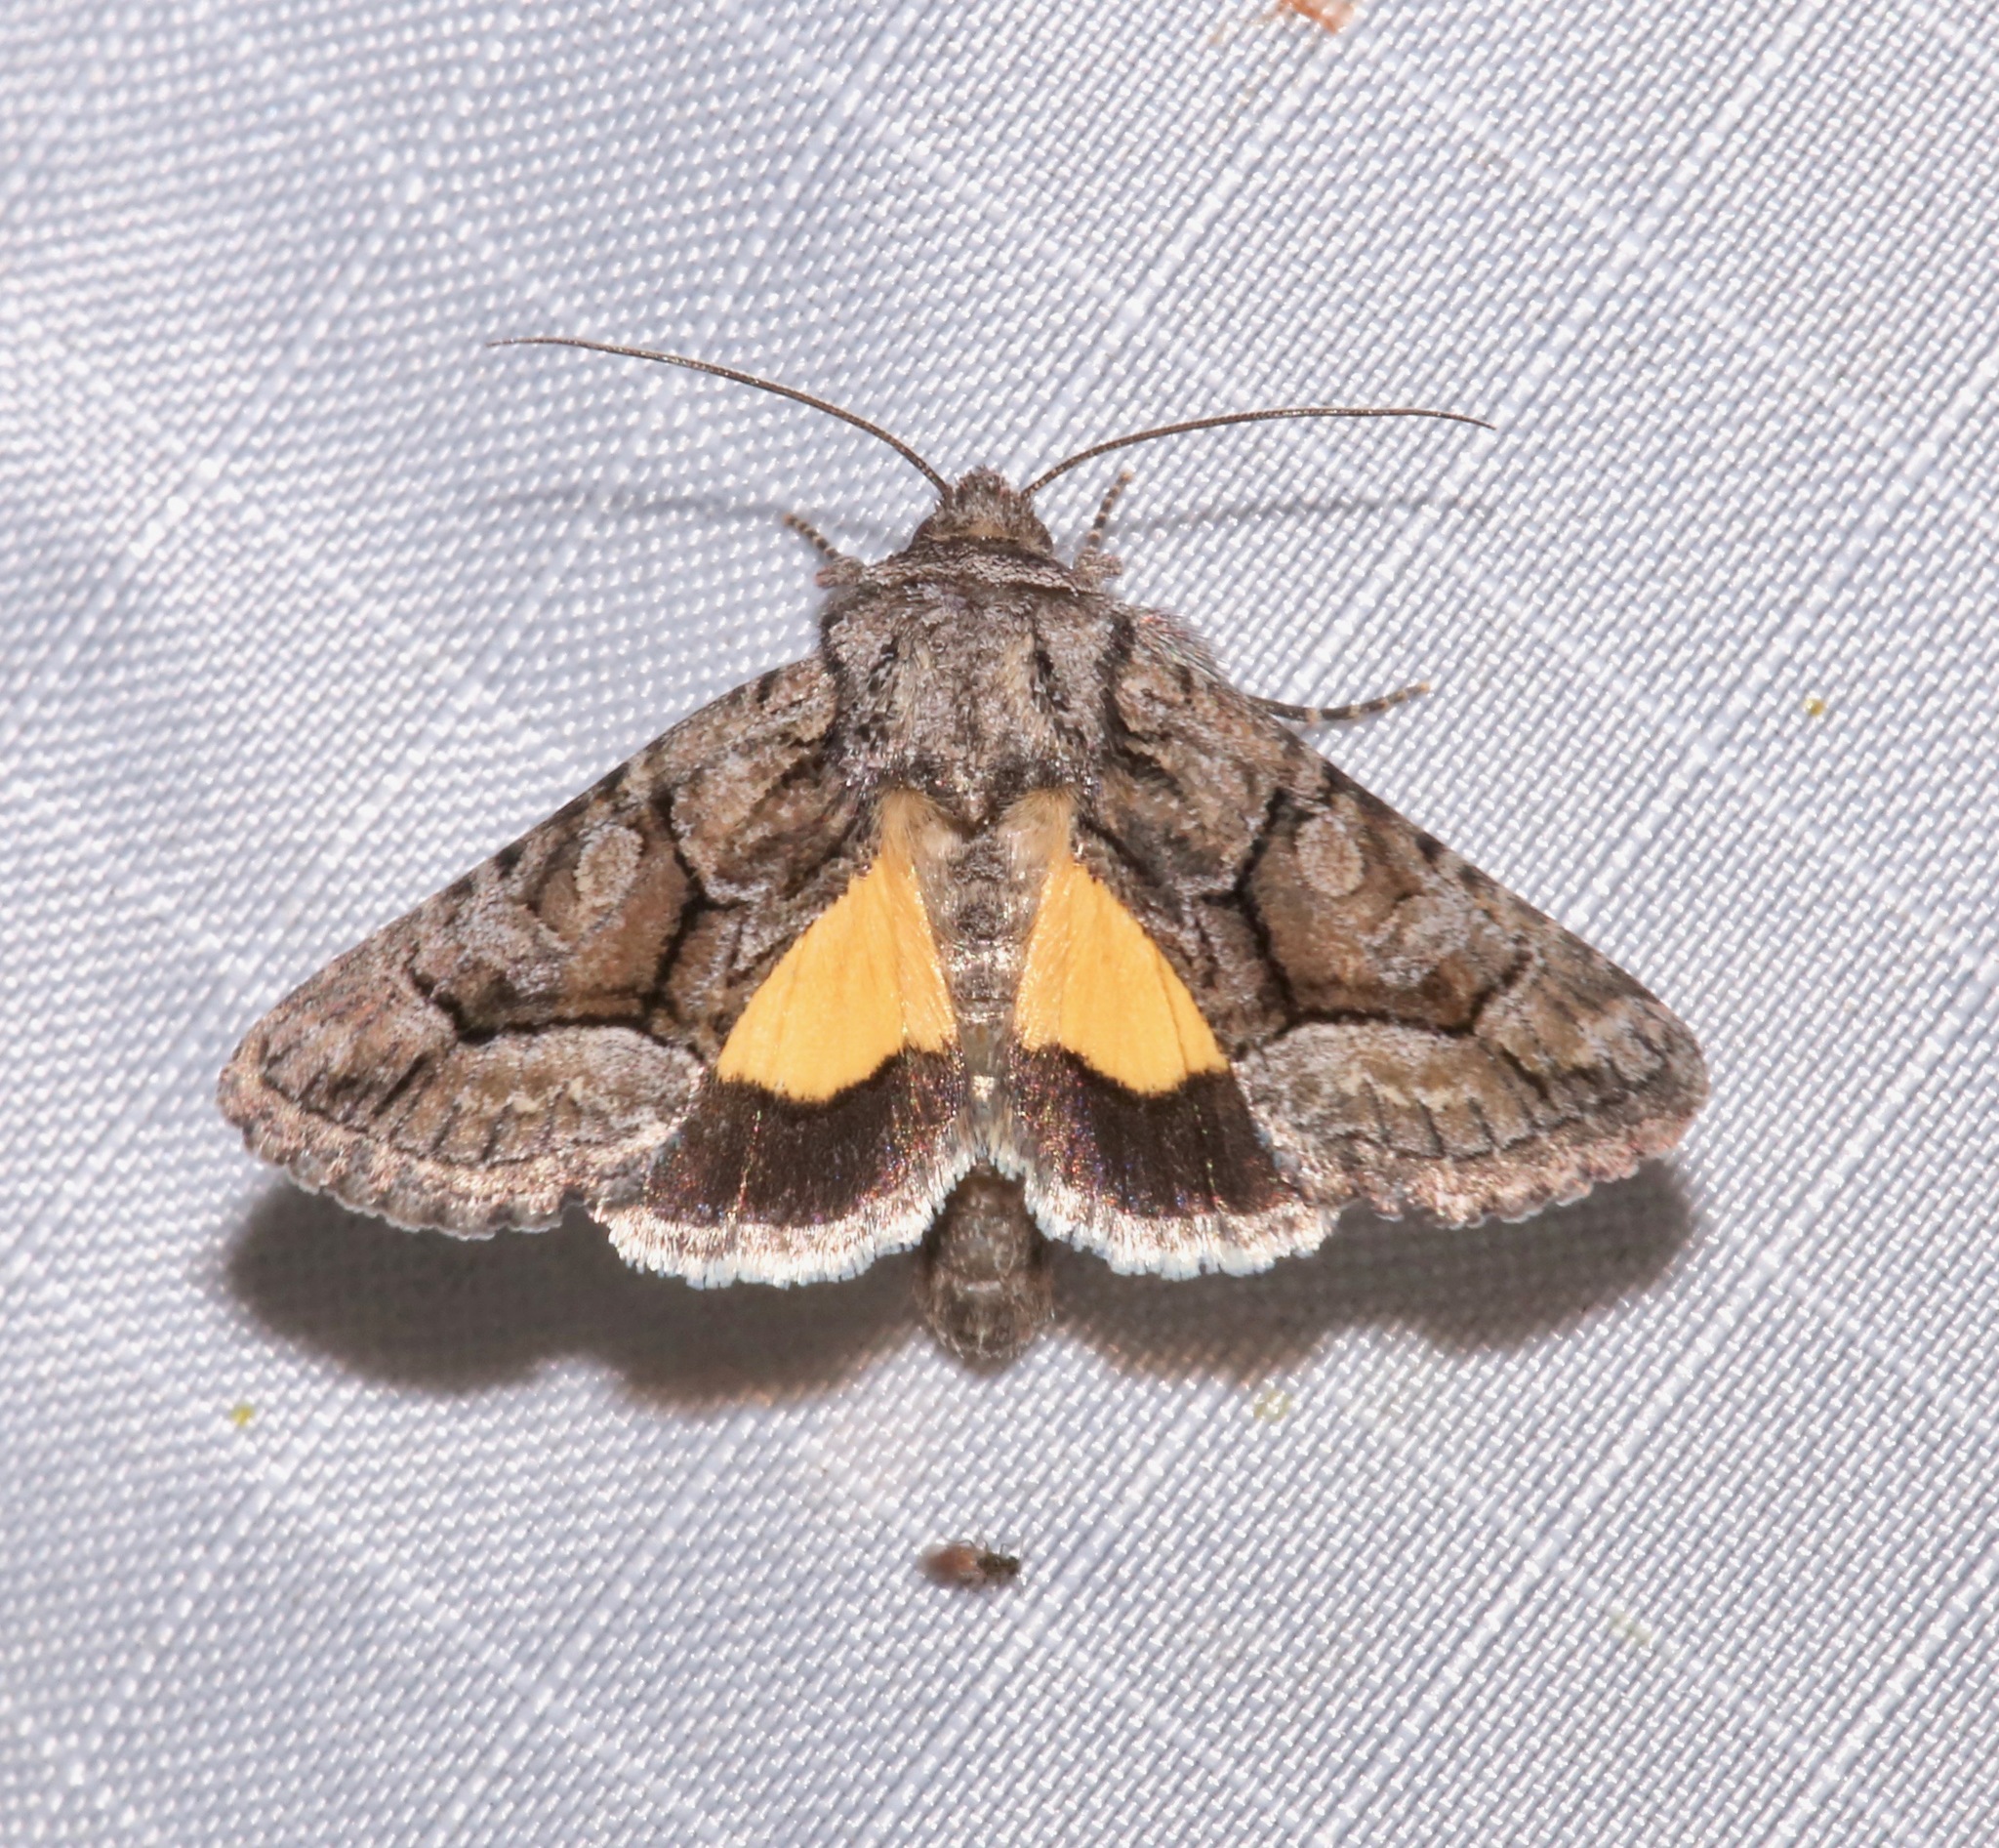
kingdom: Animalia
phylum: Arthropoda
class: Insecta
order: Lepidoptera
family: Noctuidae
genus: Pseudanarta
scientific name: Pseudanarta singula
